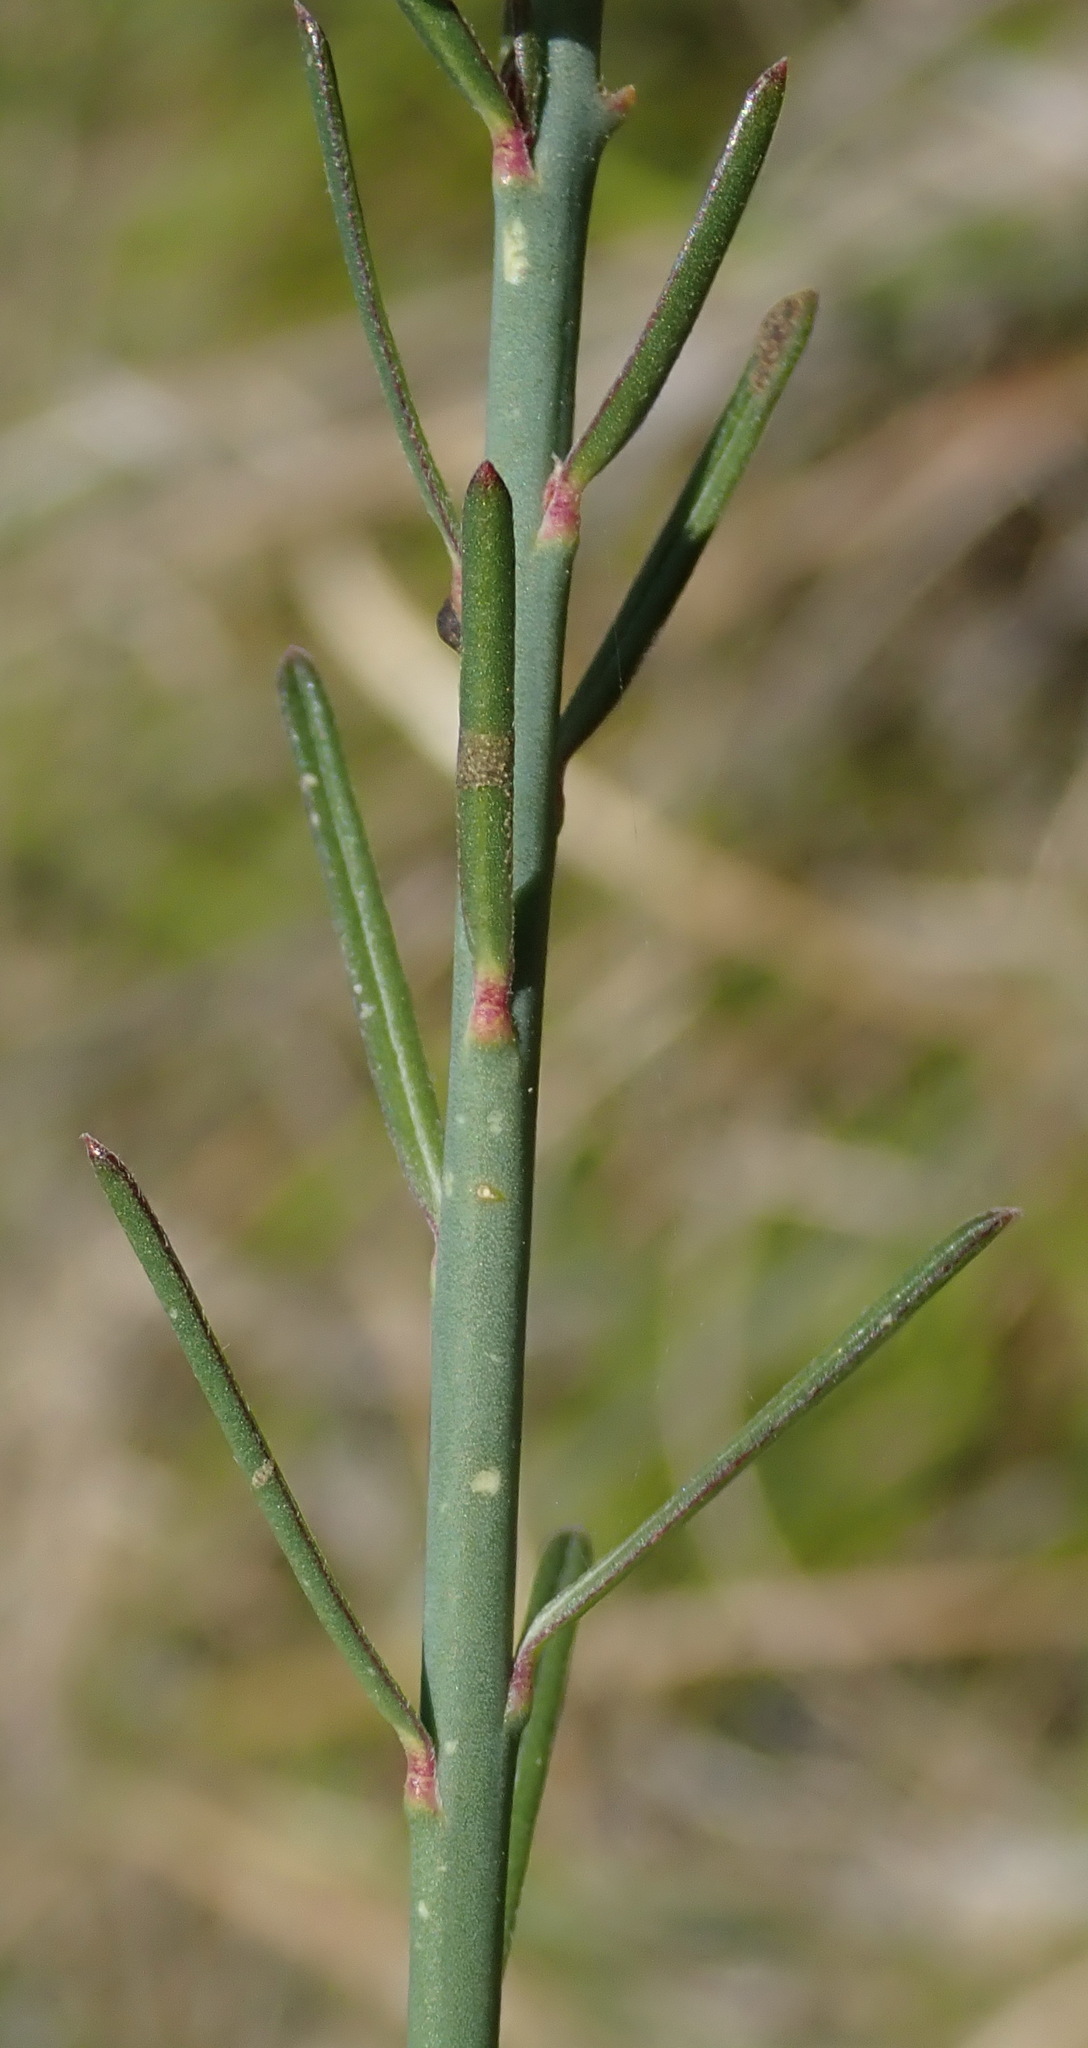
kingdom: Plantae
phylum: Tracheophyta
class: Magnoliopsida
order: Fabales
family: Polygalaceae
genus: Polygala
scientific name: Polygala virgata
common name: Milkwort
